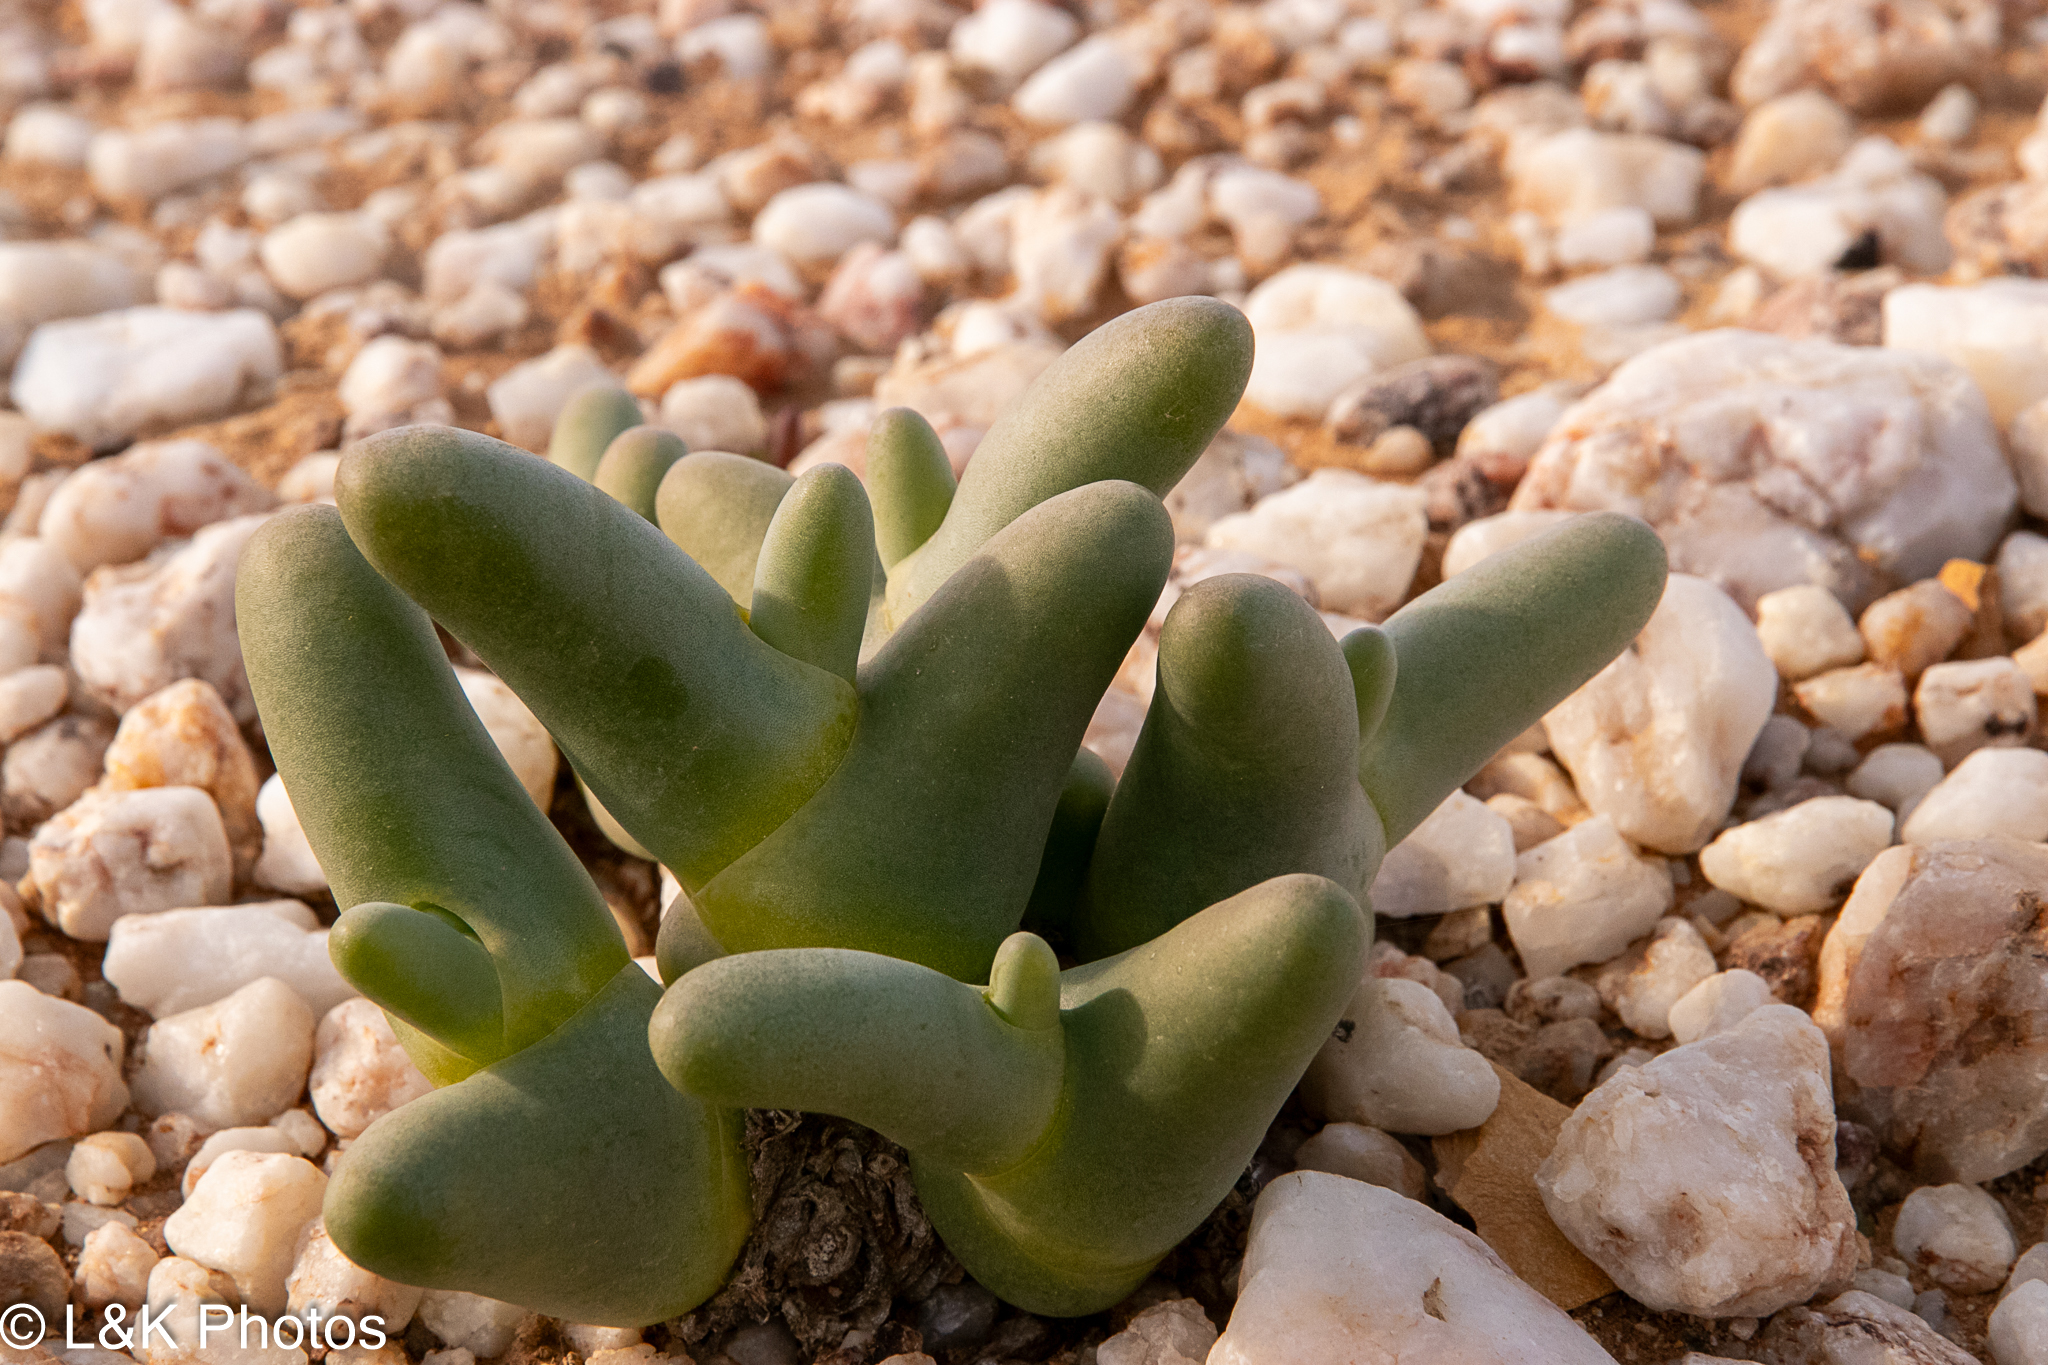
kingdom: Plantae
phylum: Tracheophyta
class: Magnoliopsida
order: Caryophyllales
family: Aizoaceae
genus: Mesembryanthemum
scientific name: Mesembryanthemum digitatum
